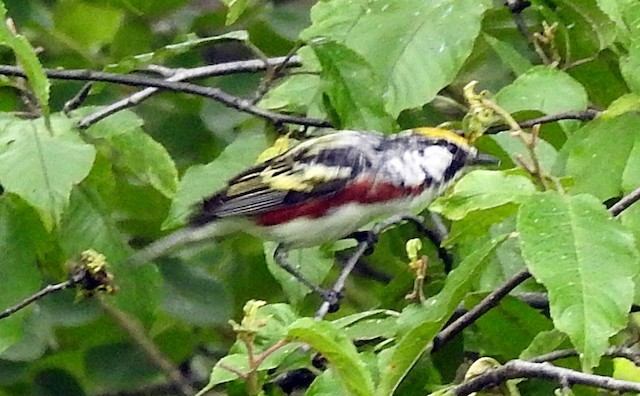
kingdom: Animalia
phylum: Chordata
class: Aves
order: Passeriformes
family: Parulidae
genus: Setophaga
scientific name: Setophaga pensylvanica
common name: Chestnut-sided warbler
